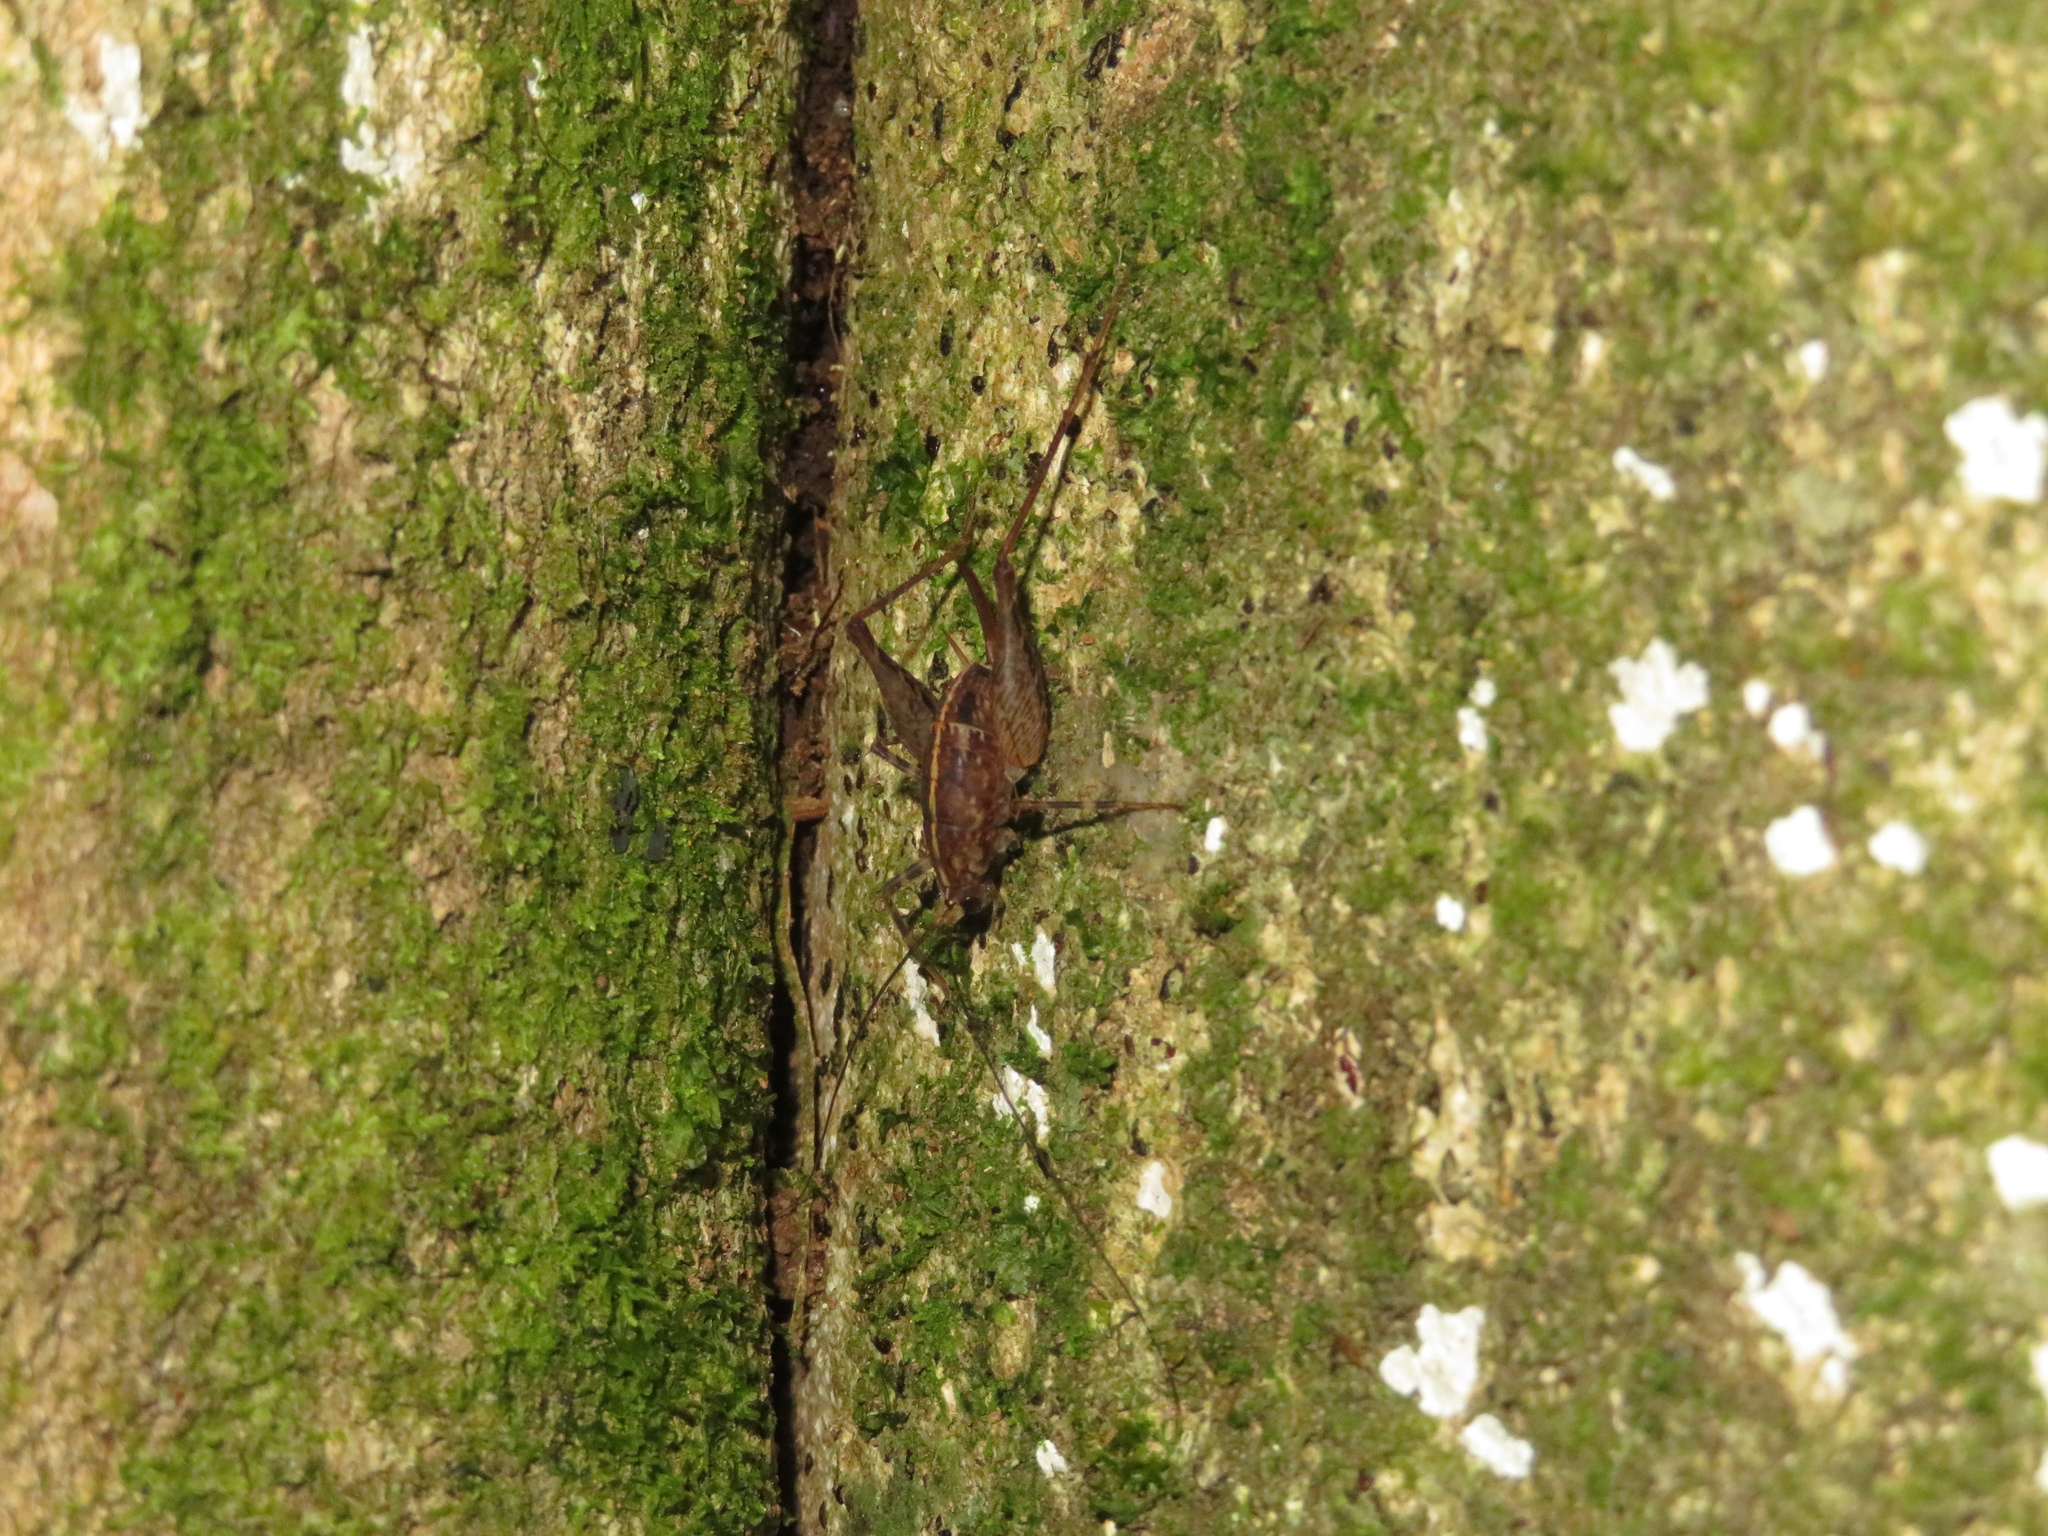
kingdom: Animalia
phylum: Arthropoda
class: Insecta
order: Orthoptera
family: Rhaphidophoridae
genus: Pleioplectron
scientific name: Pleioplectron hudsoni
